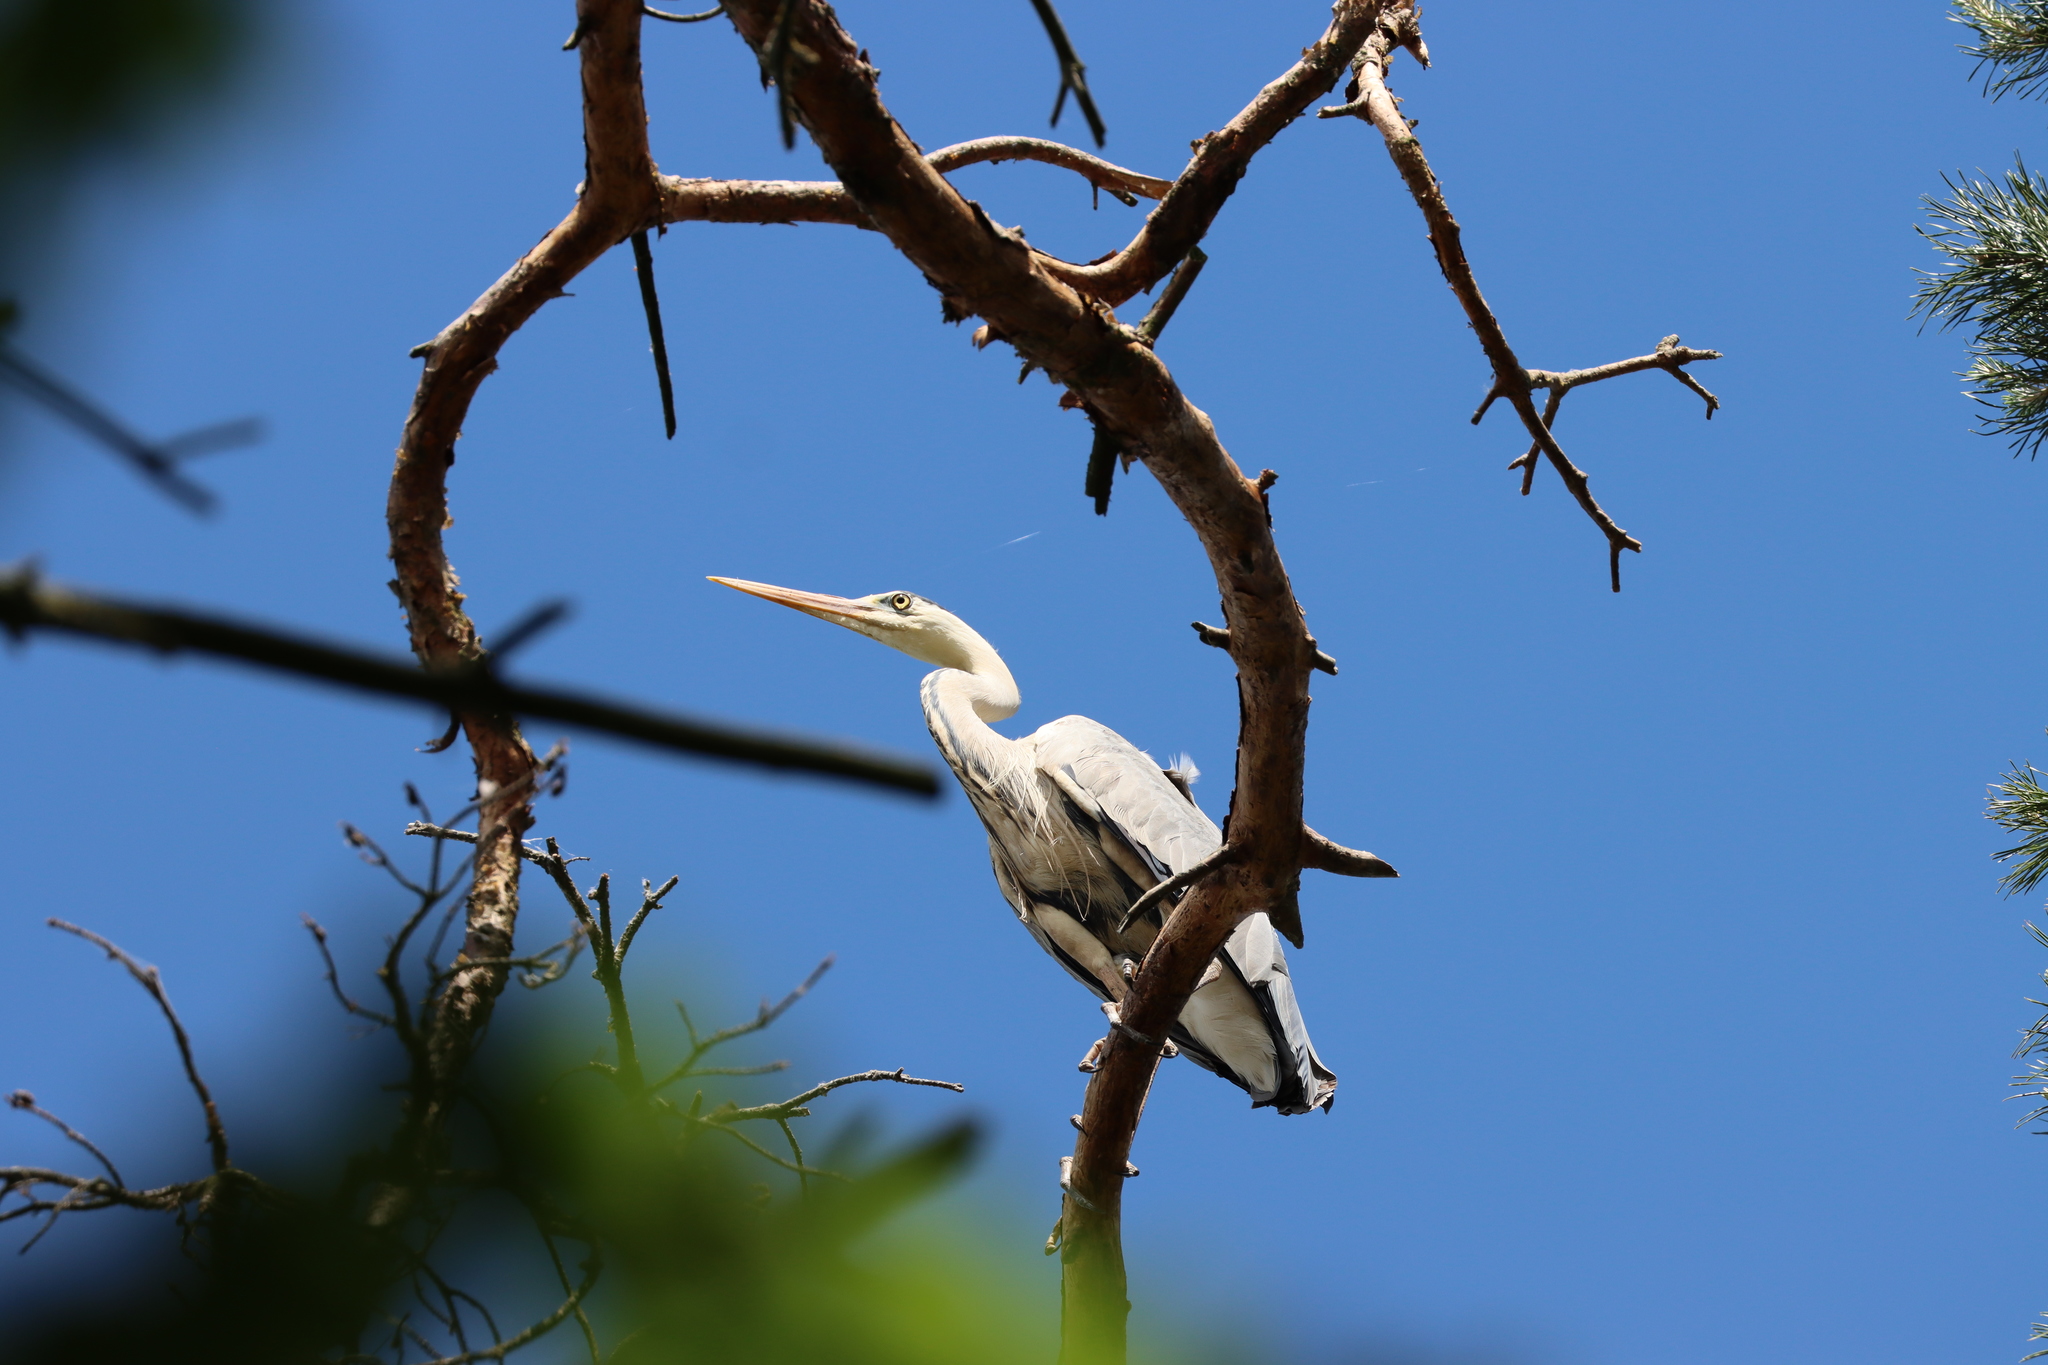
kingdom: Animalia
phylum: Chordata
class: Aves
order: Pelecaniformes
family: Ardeidae
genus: Ardea
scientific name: Ardea cinerea
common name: Grey heron
